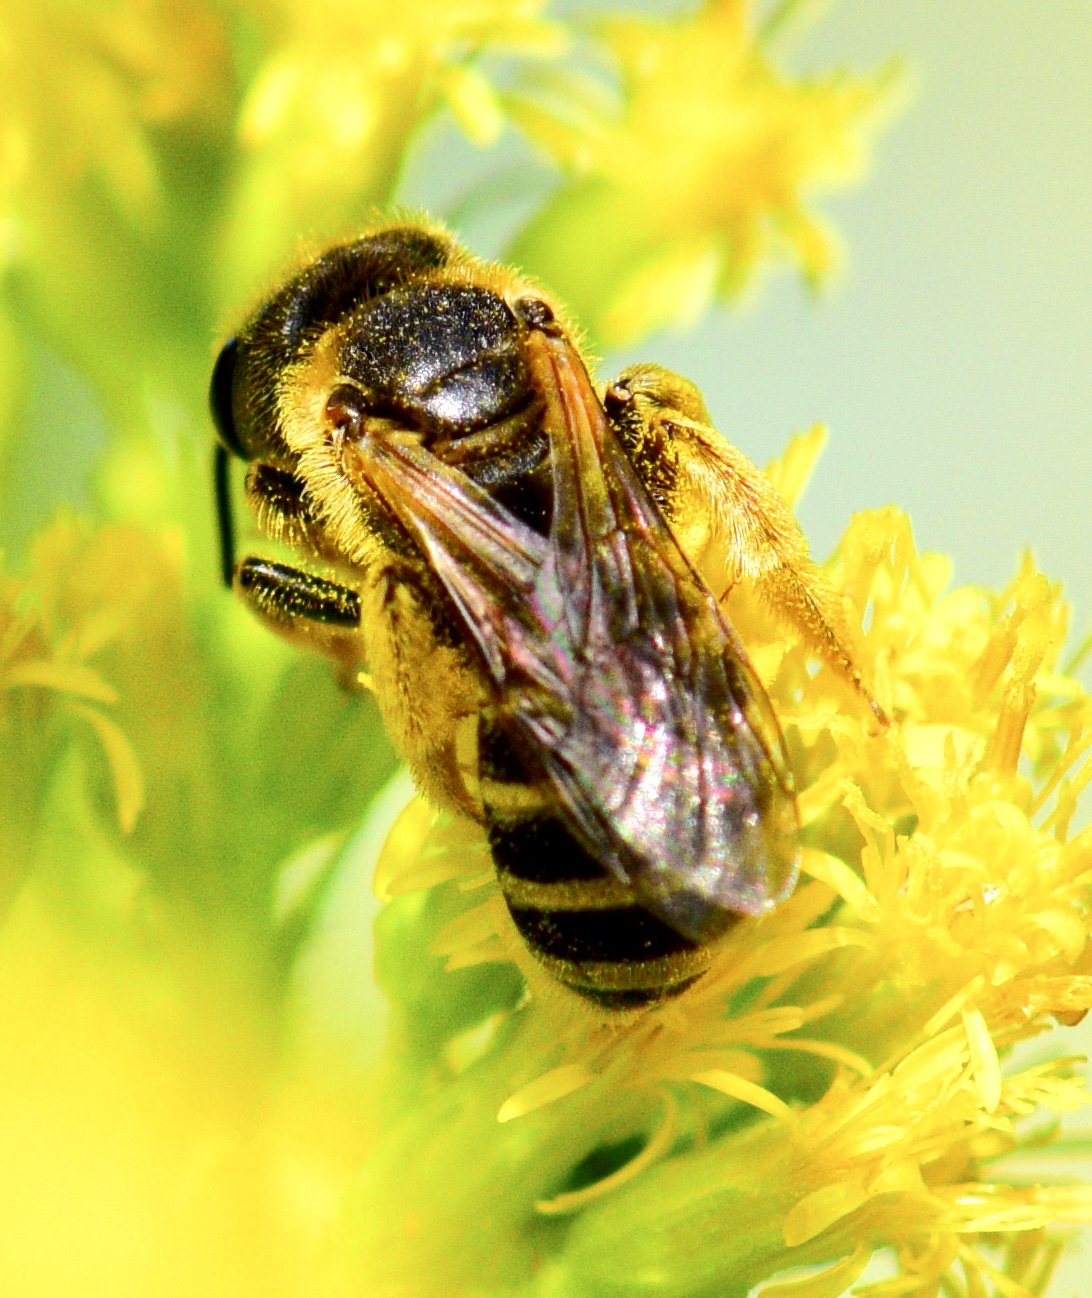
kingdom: Animalia
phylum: Arthropoda
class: Insecta
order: Hymenoptera
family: Halictidae
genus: Halictus
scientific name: Halictus ligatus
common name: Ligated furrow bee
